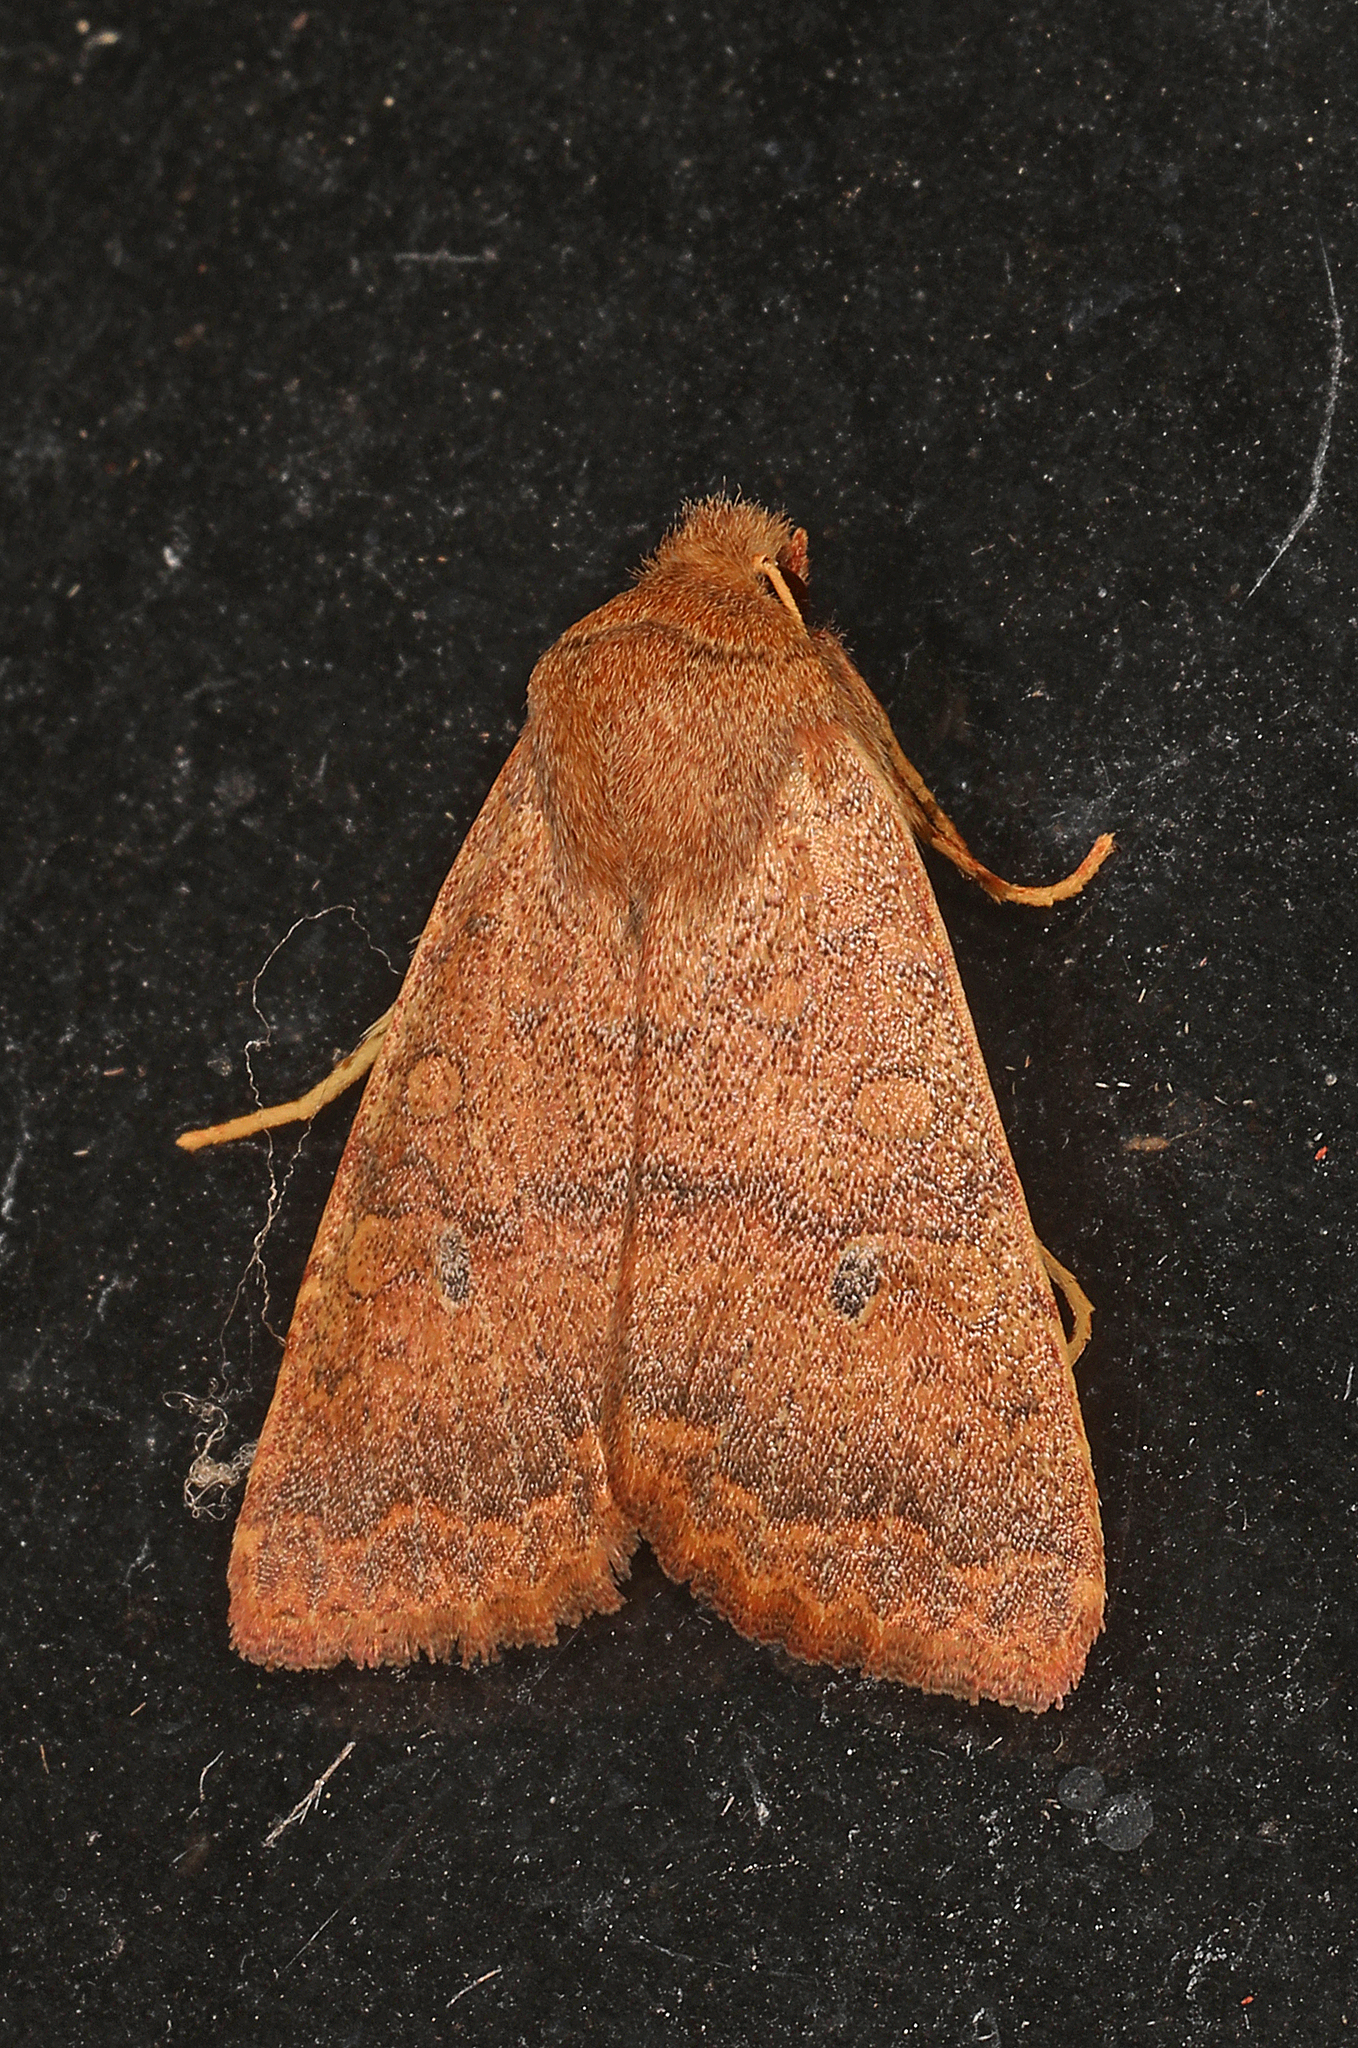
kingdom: Animalia
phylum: Arthropoda
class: Insecta
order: Lepidoptera
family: Noctuidae
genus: Agrochola
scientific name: Agrochola bicolorago
